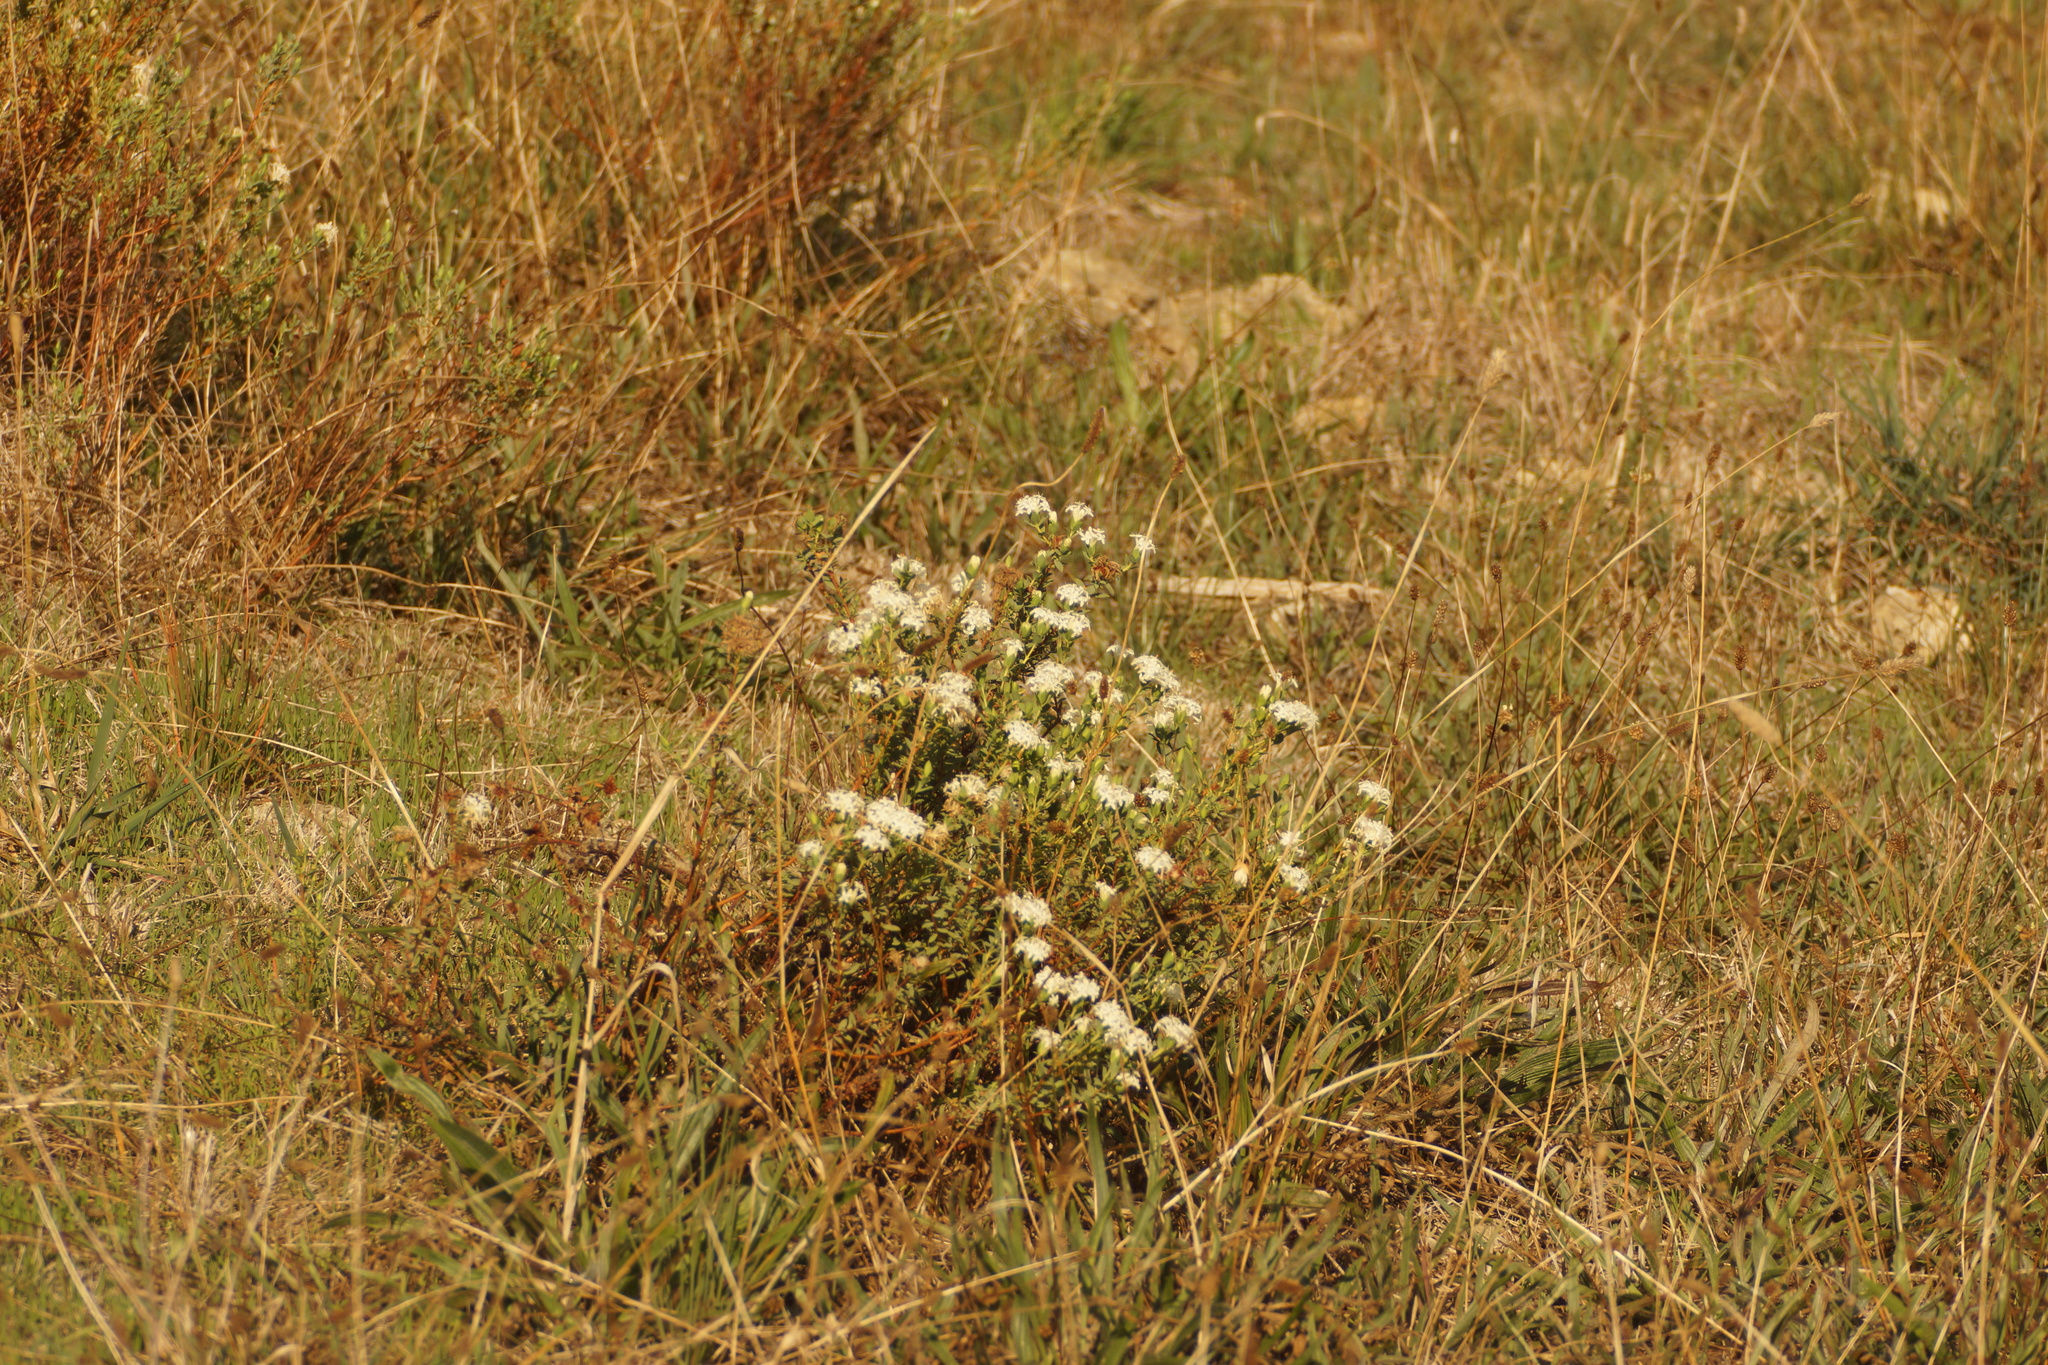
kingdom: Plantae
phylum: Tracheophyta
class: Magnoliopsida
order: Malvales
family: Thymelaeaceae
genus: Pimelea
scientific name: Pimelea glauca
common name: Smooth riceflower
